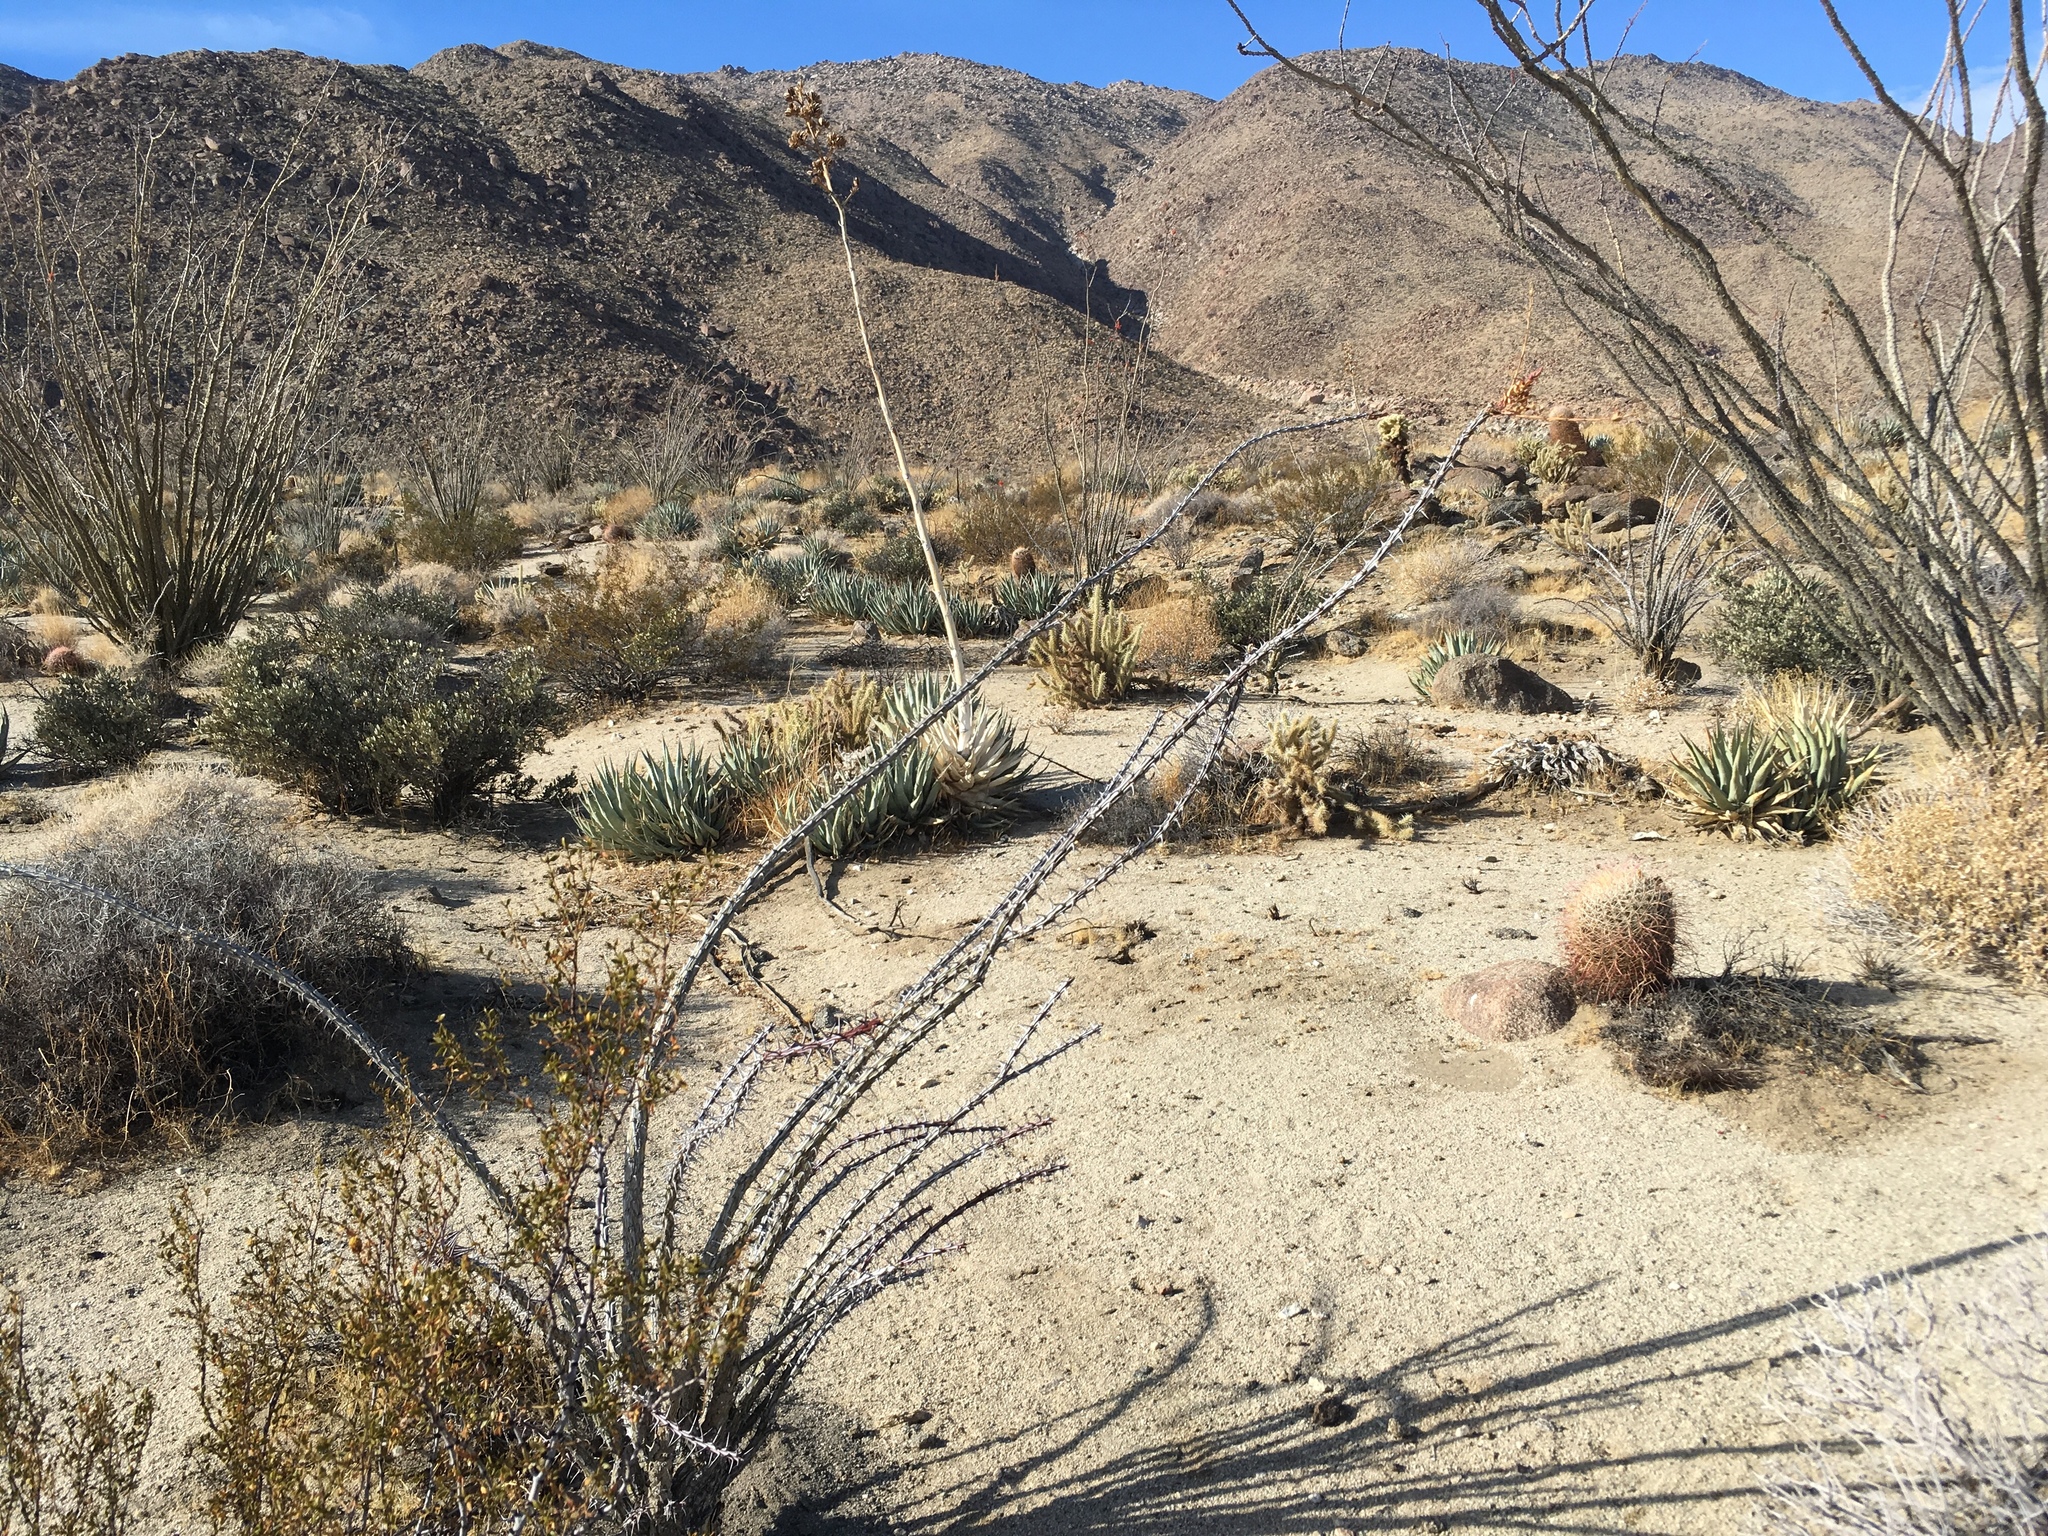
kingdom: Plantae
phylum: Tracheophyta
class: Magnoliopsida
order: Ericales
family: Fouquieriaceae
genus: Fouquieria
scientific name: Fouquieria splendens
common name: Vine-cactus
